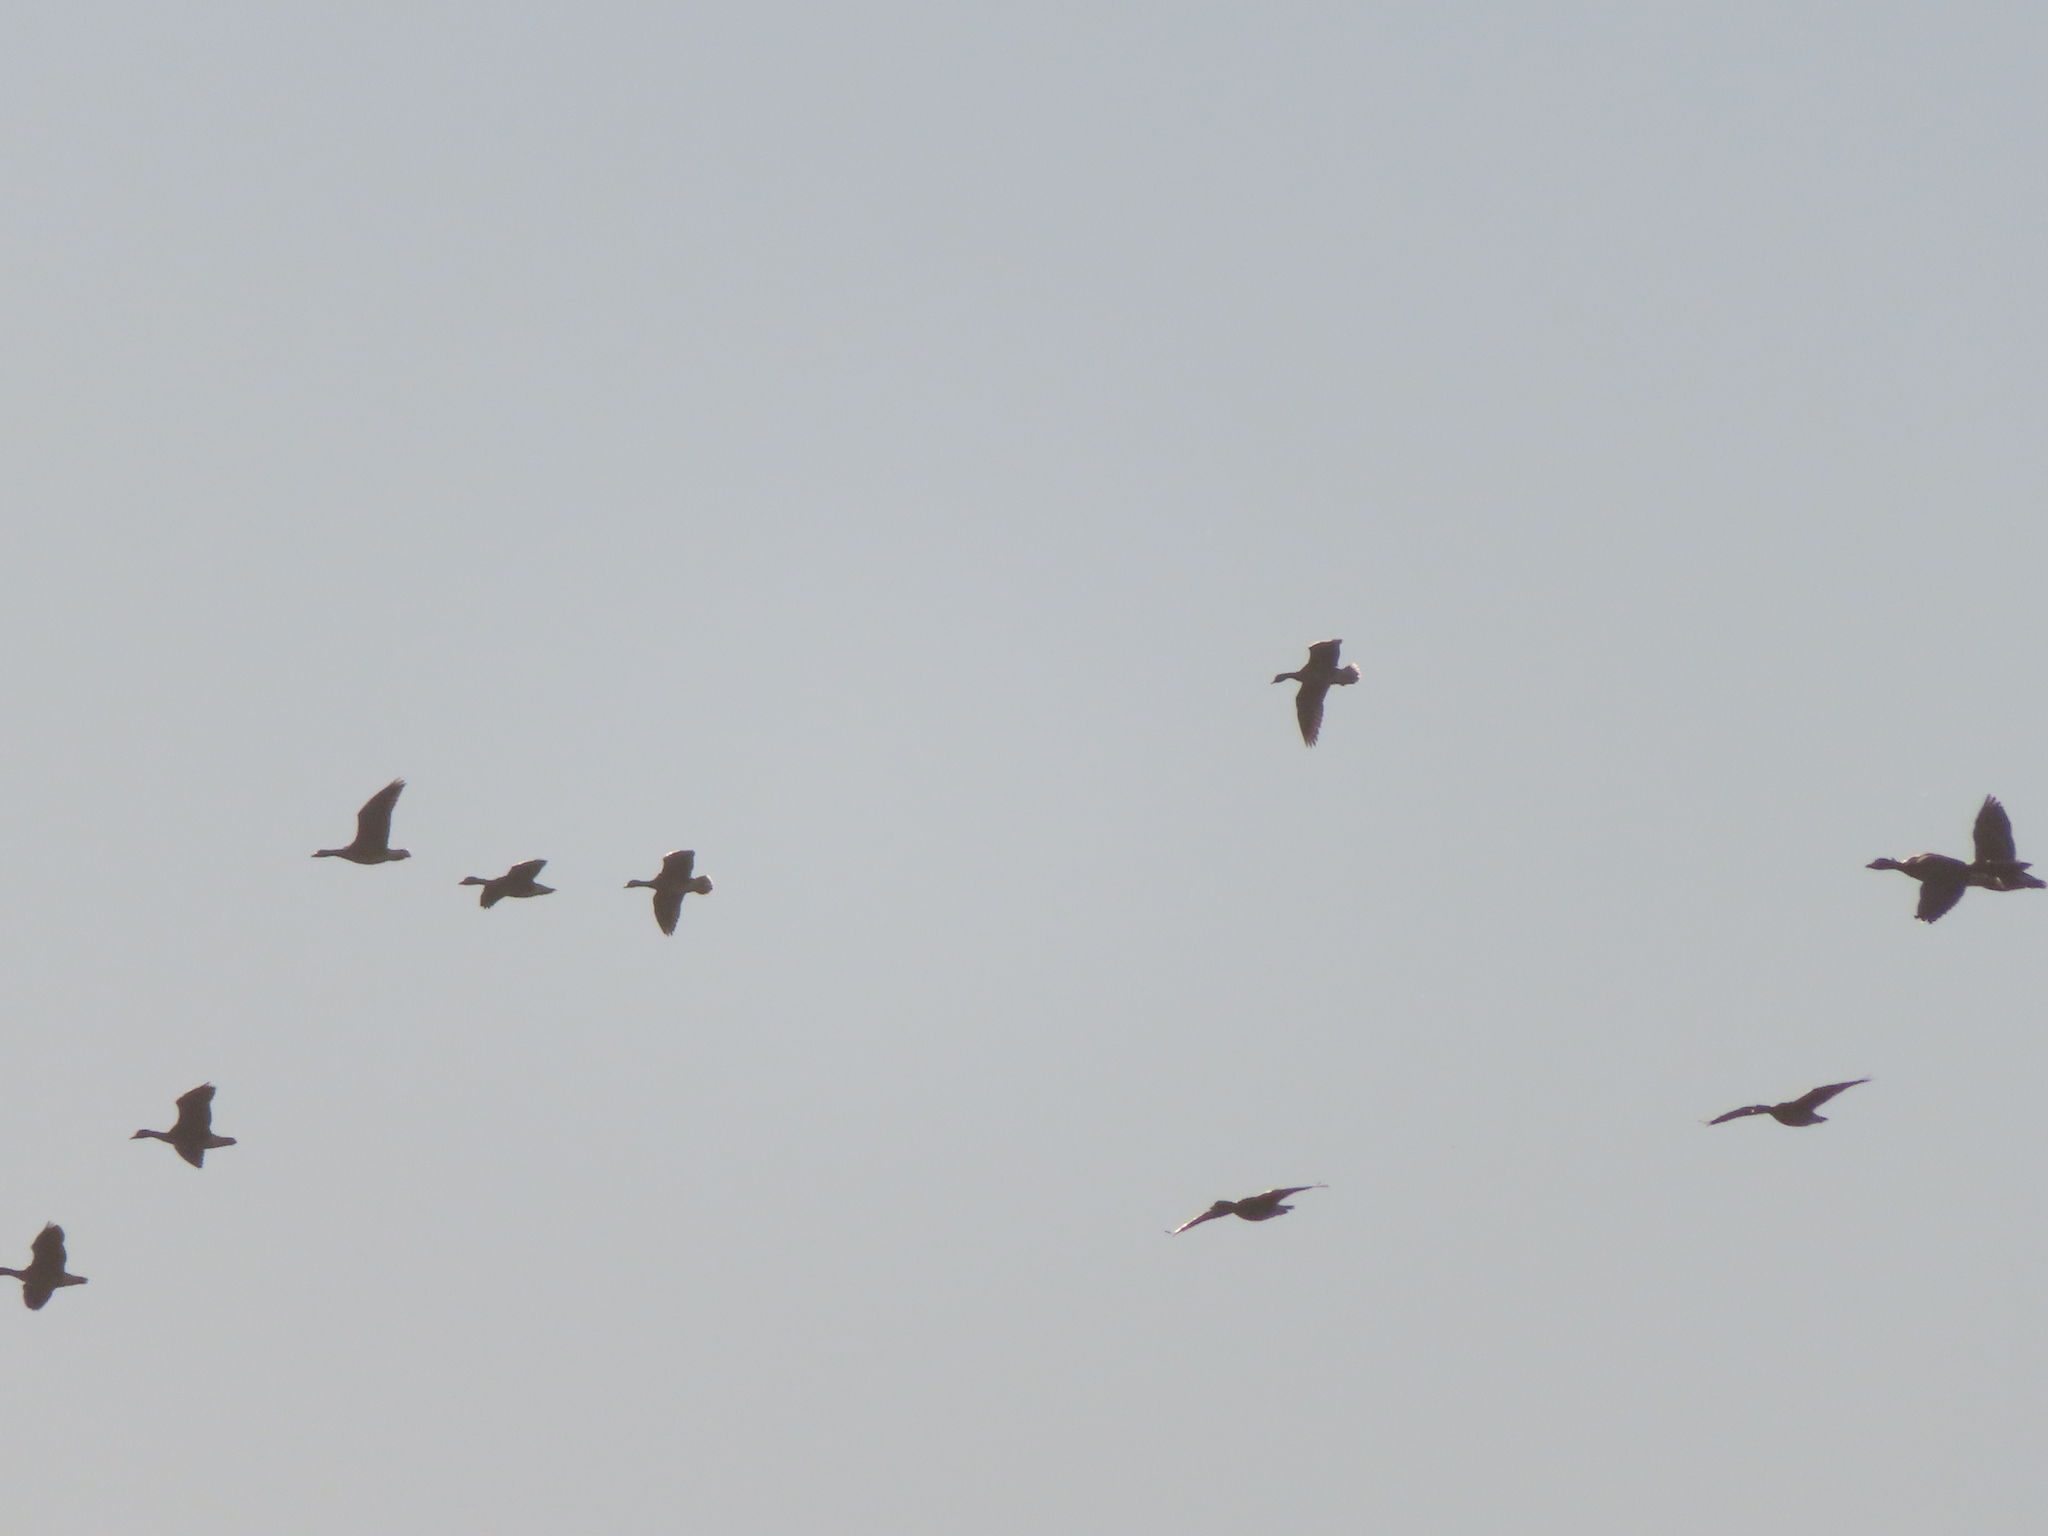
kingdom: Animalia
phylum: Chordata
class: Aves
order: Anseriformes
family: Anatidae
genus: Anser
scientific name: Anser caerulescens
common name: Snow goose
